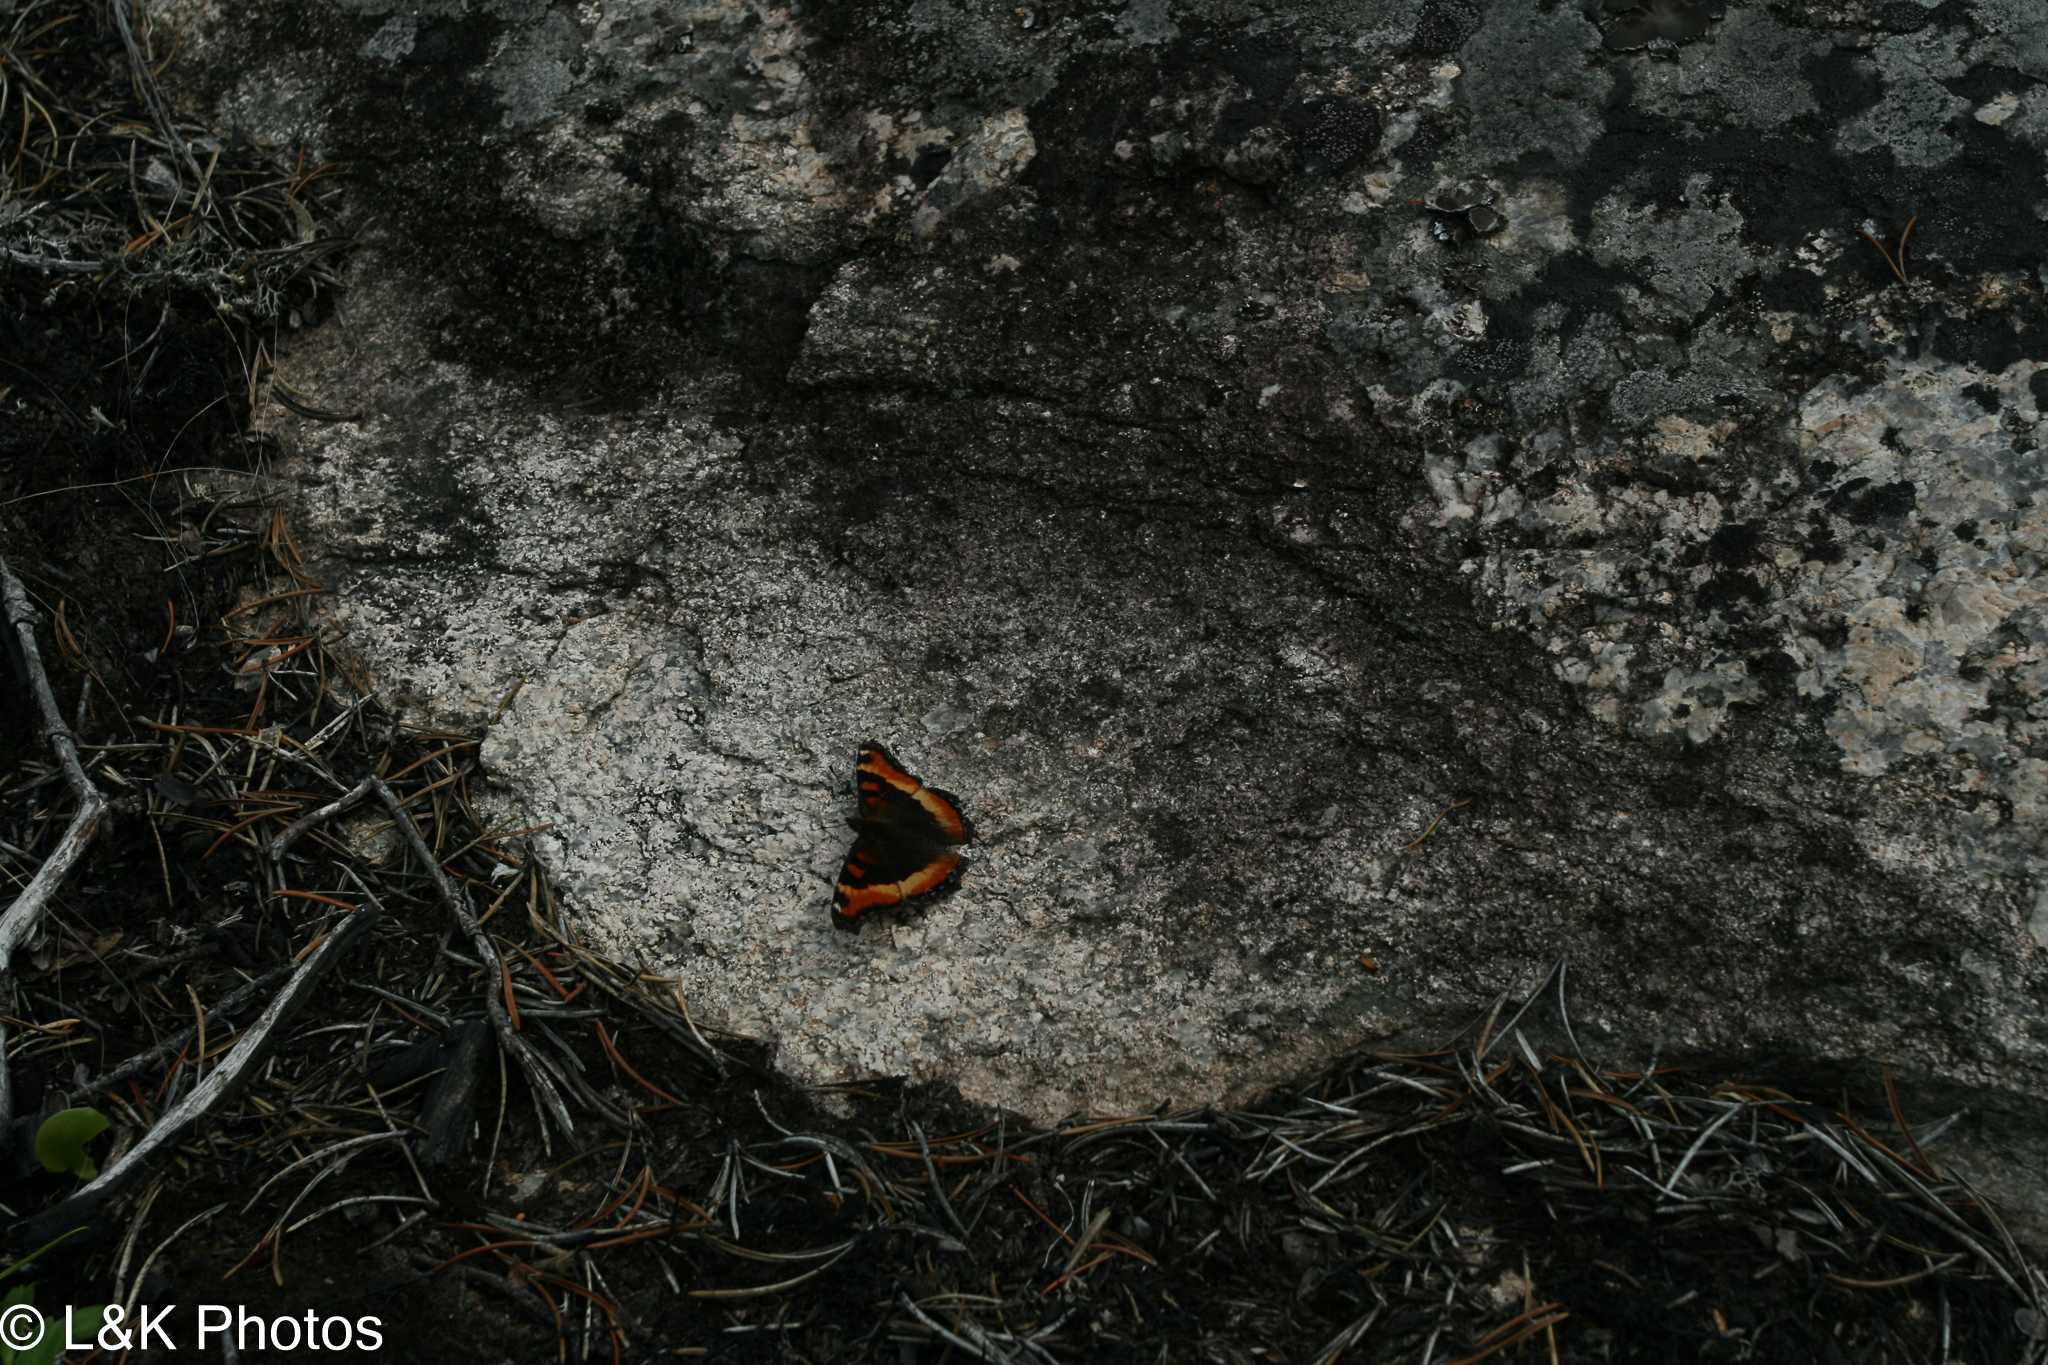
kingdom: Animalia
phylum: Arthropoda
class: Insecta
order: Lepidoptera
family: Nymphalidae
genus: Aglais
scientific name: Aglais milberti
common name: Milbert's tortoiseshell
